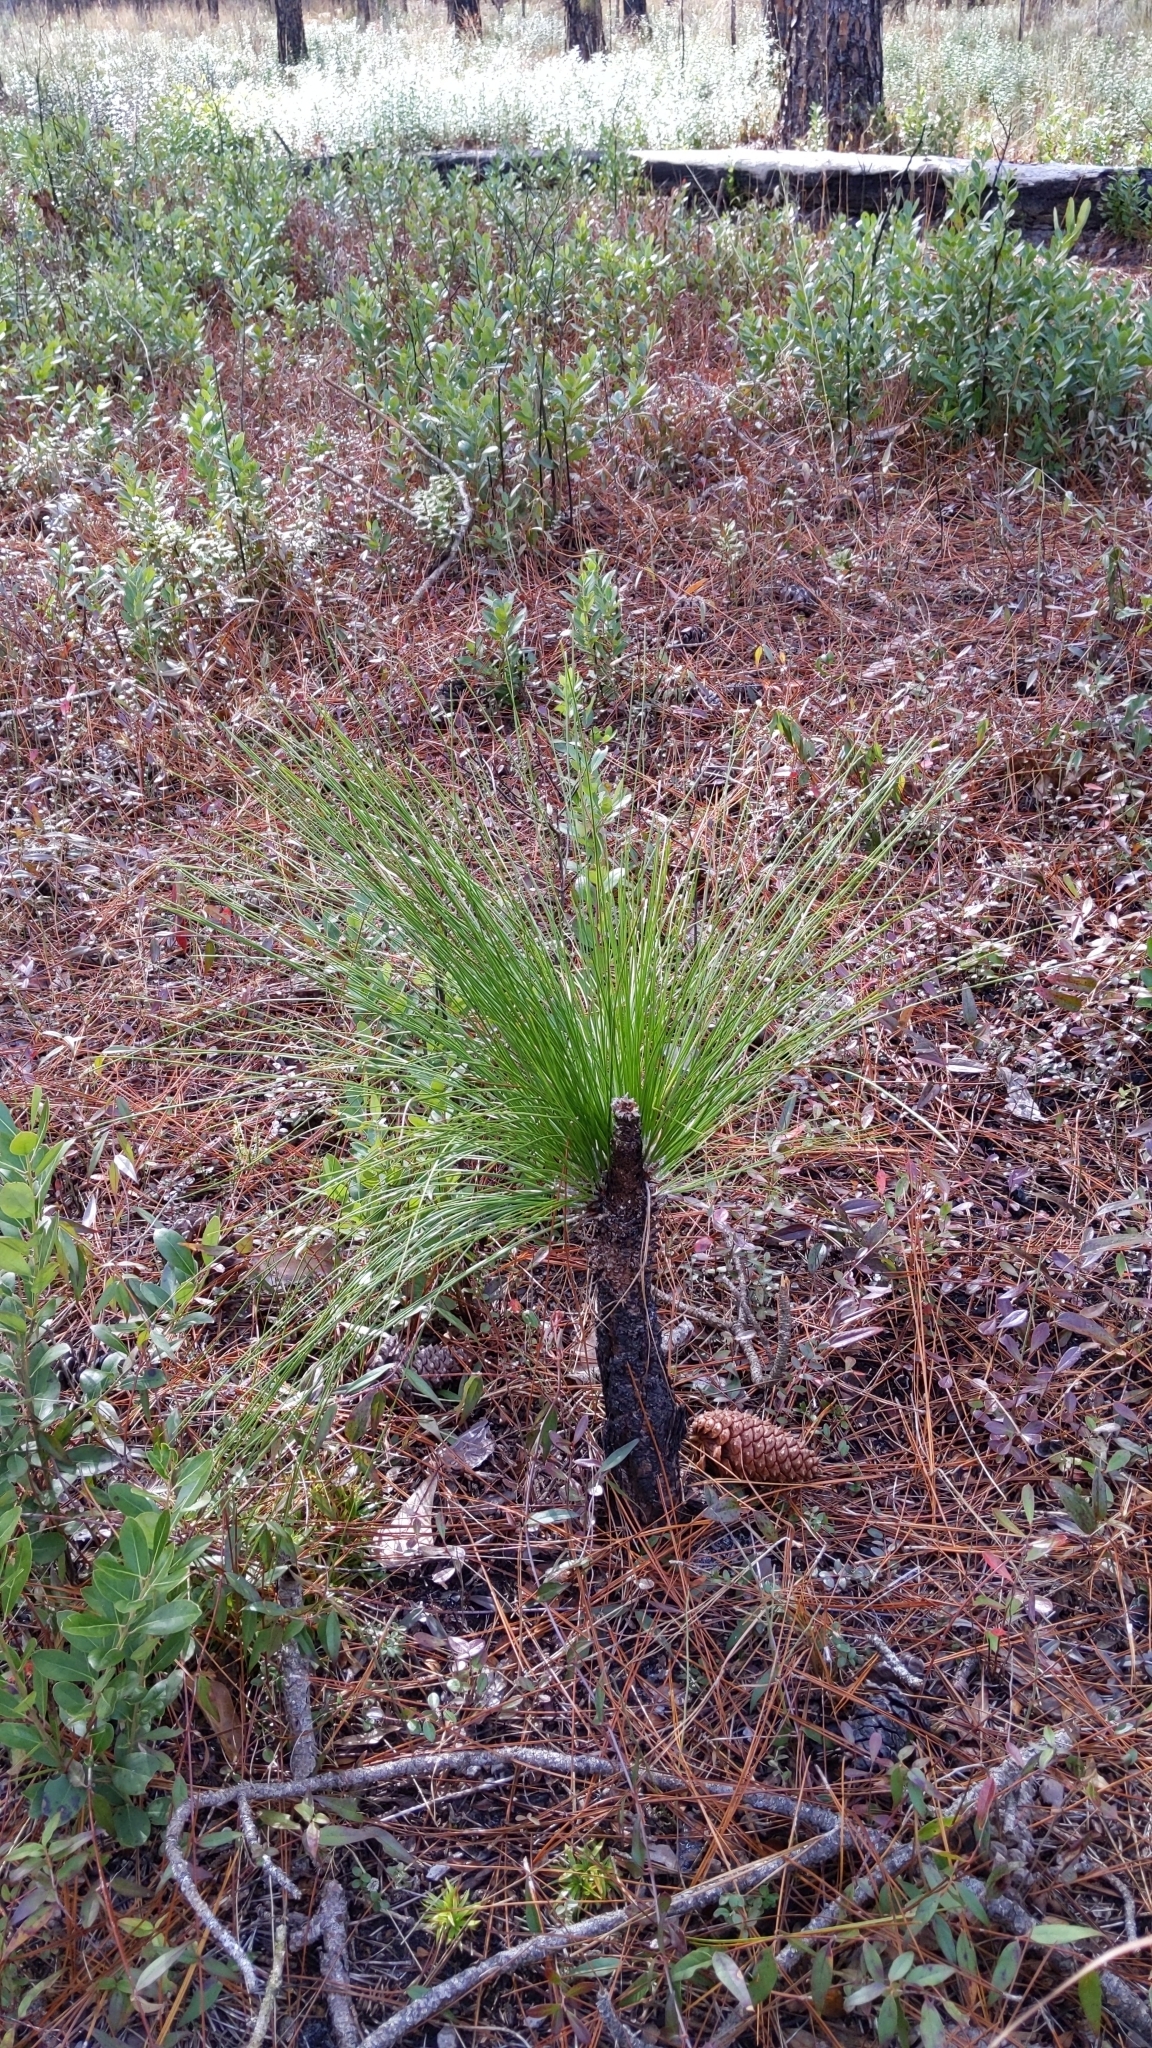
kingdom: Plantae
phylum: Tracheophyta
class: Pinopsida
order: Pinales
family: Pinaceae
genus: Pinus
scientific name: Pinus palustris
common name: Longleaf pine
